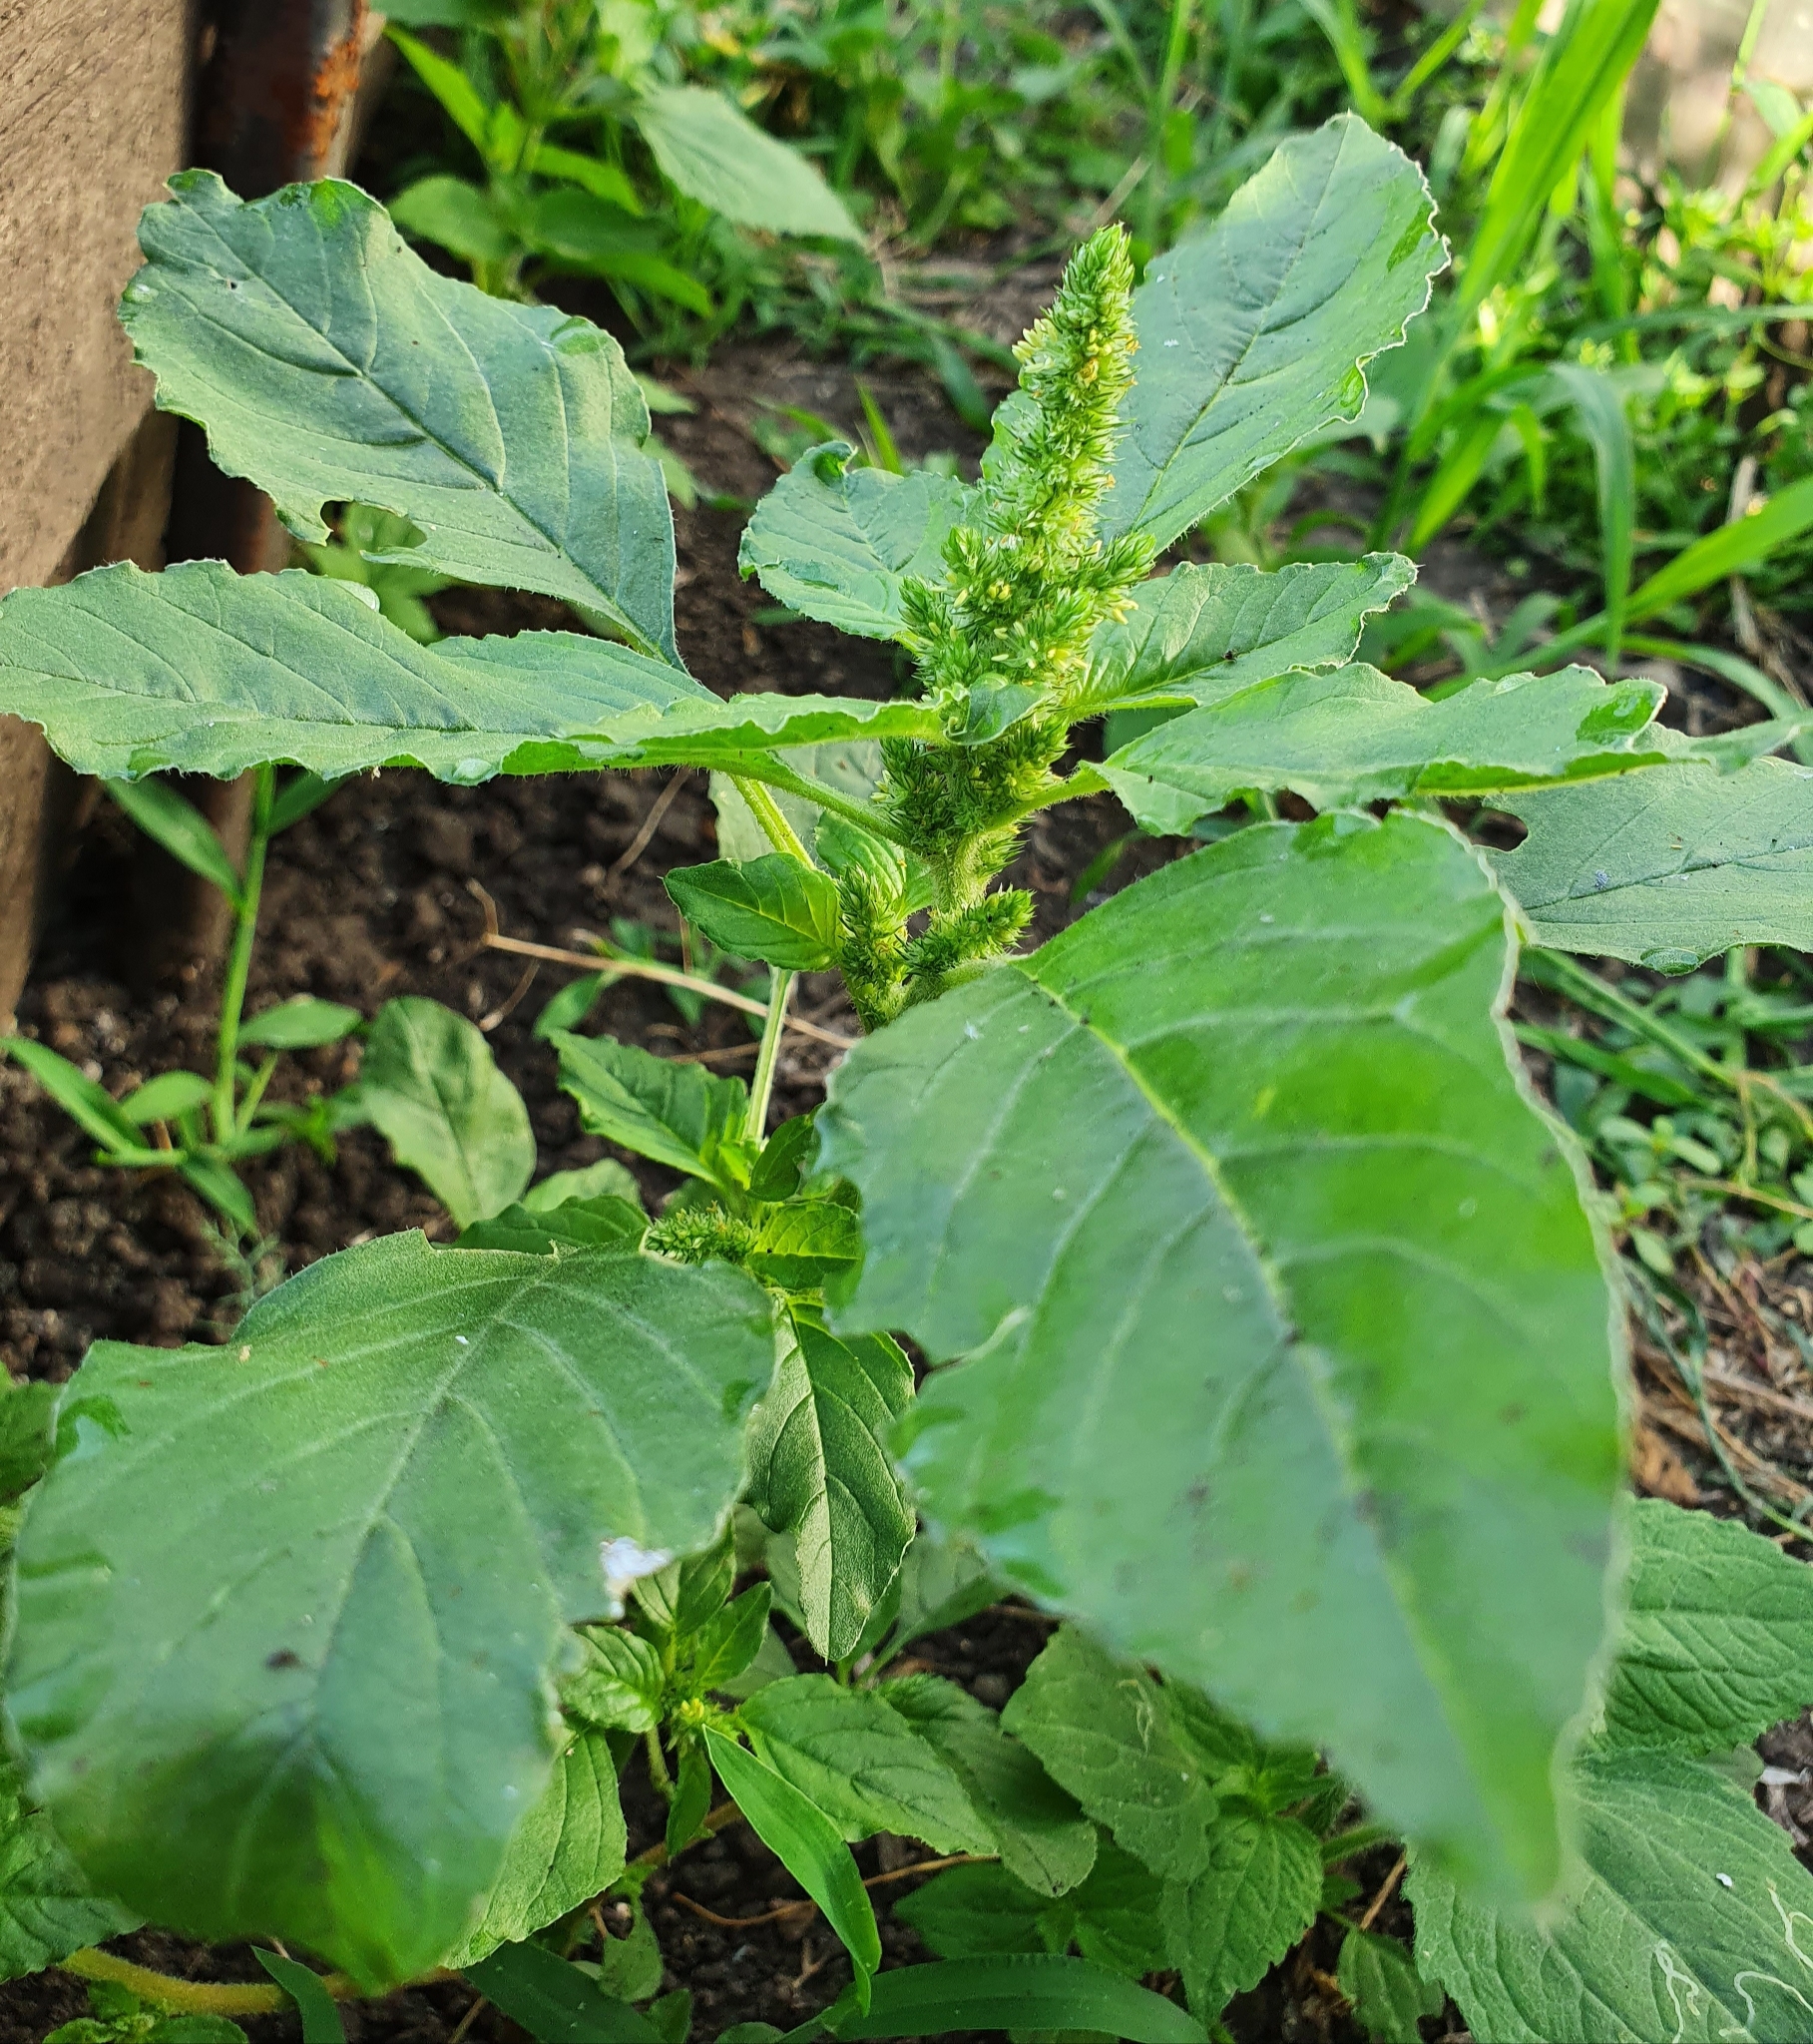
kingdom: Plantae
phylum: Tracheophyta
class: Magnoliopsida
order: Caryophyllales
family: Amaranthaceae
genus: Amaranthus
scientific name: Amaranthus retroflexus
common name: Redroot amaranth
